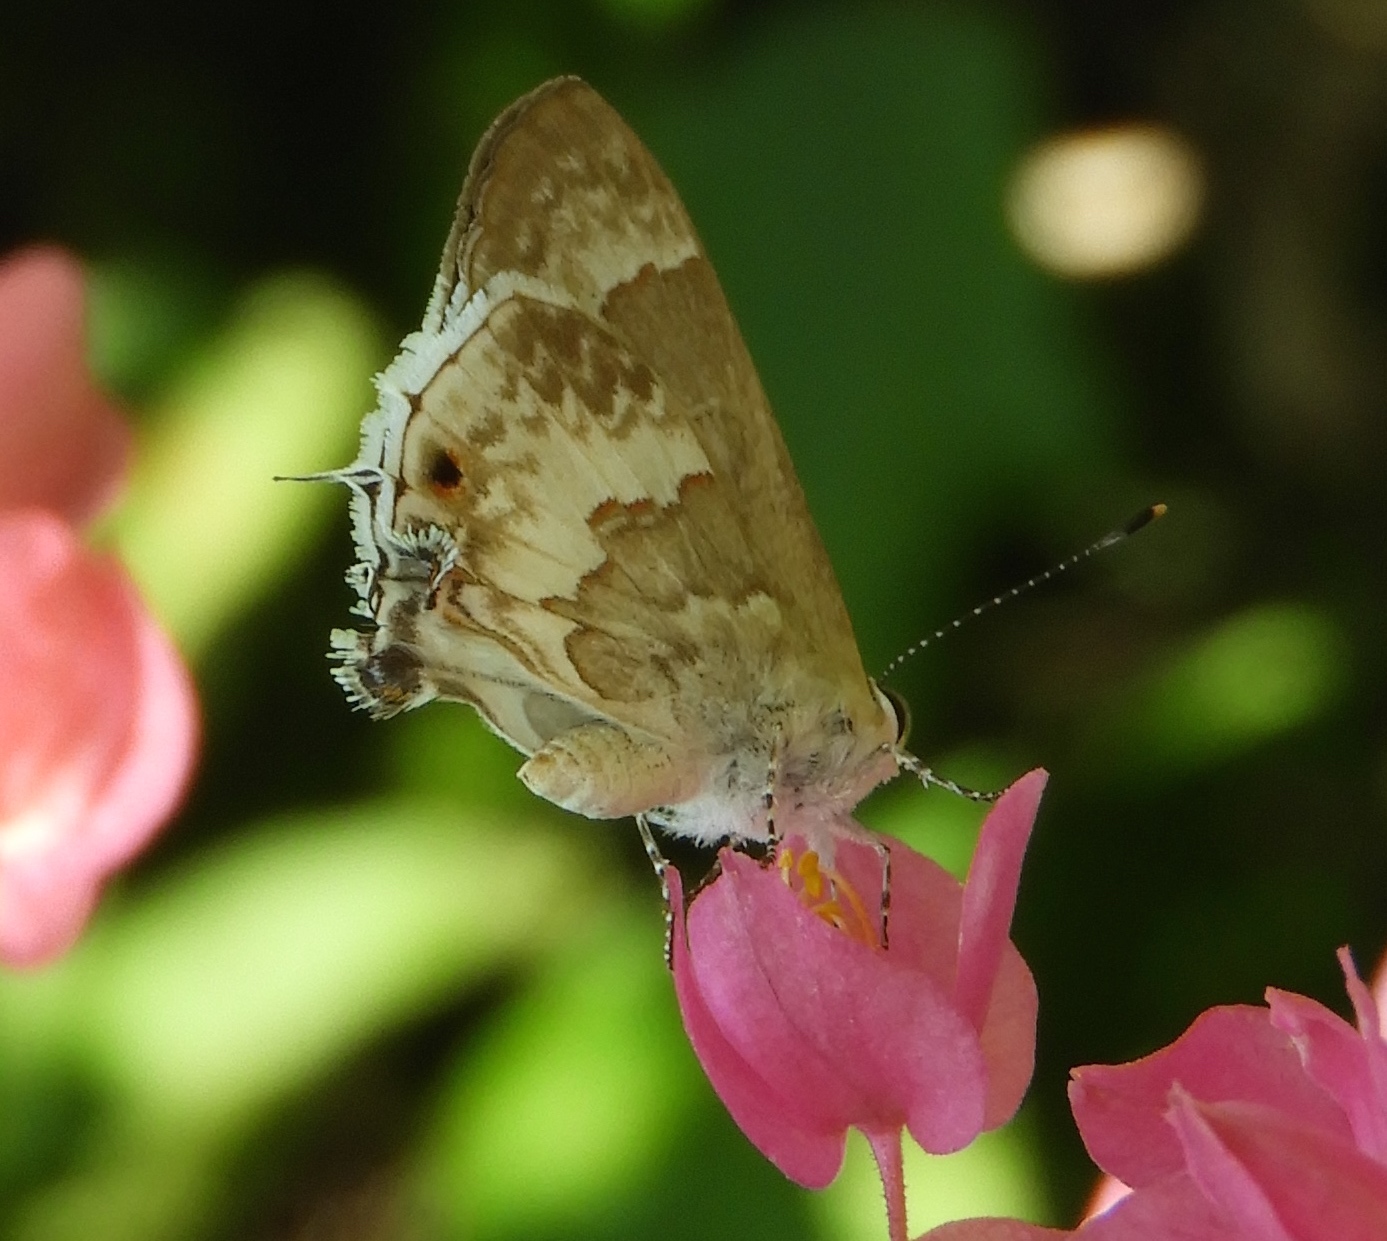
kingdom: Animalia
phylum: Arthropoda
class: Insecta
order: Lepidoptera
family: Lycaenidae
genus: Strymon
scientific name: Strymon albata
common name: White scrub-hairstreak
